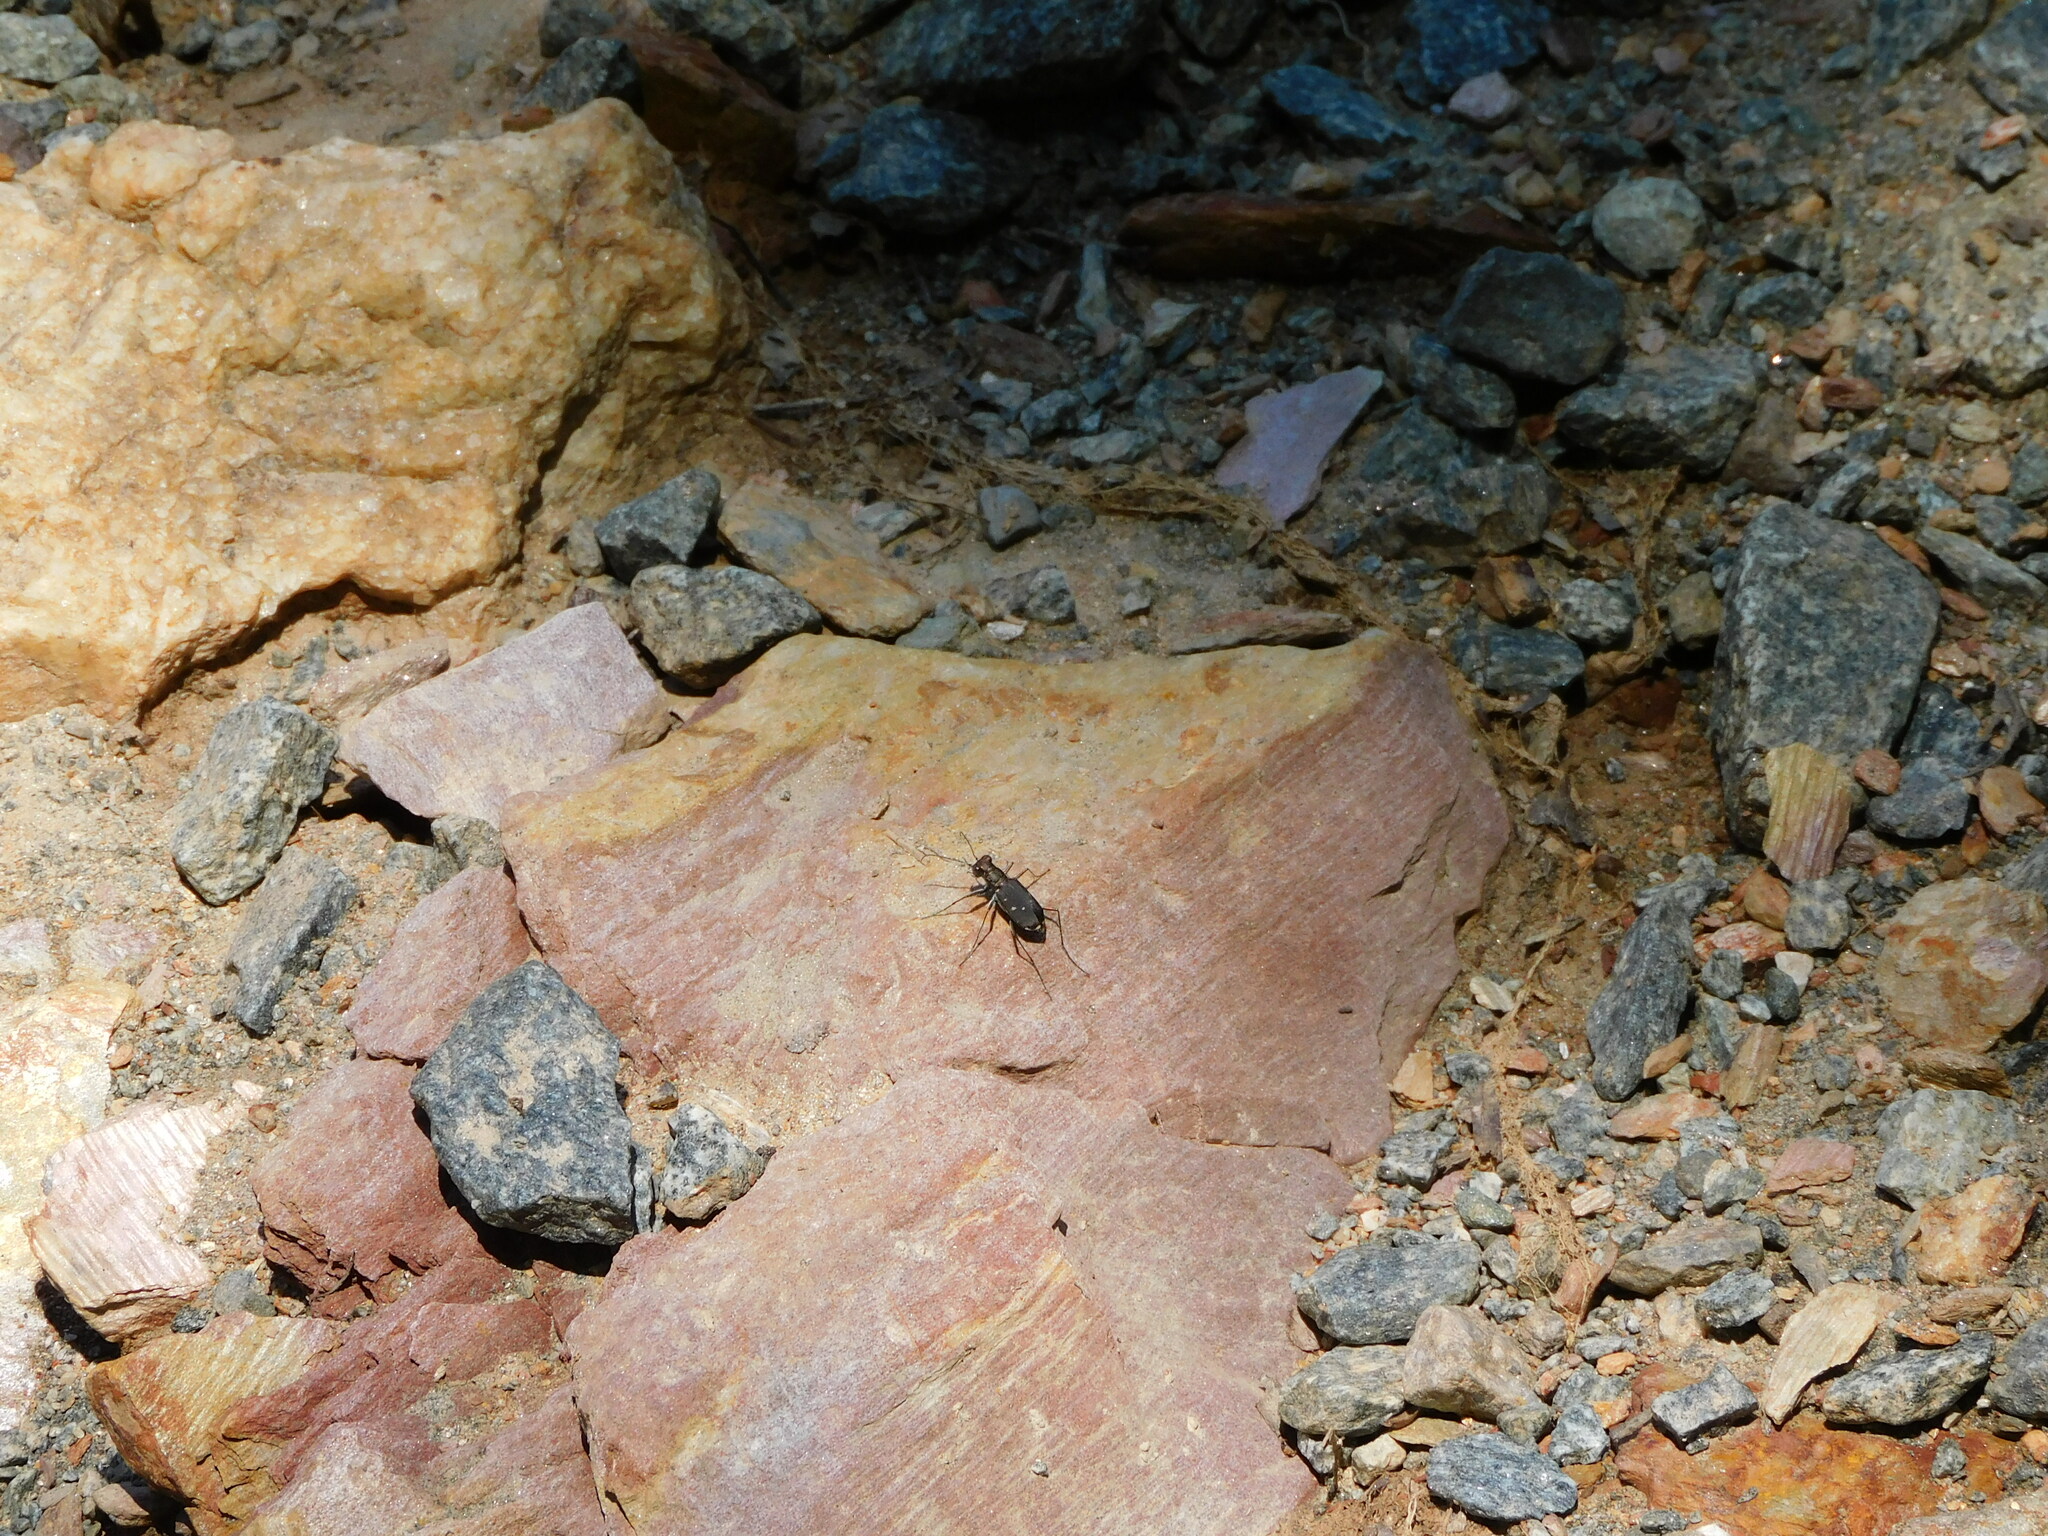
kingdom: Animalia
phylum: Arthropoda
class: Insecta
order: Coleoptera
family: Carabidae
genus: Cicindela
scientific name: Cicindela rufiventris
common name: Eastern red-bellied tiger beetle
